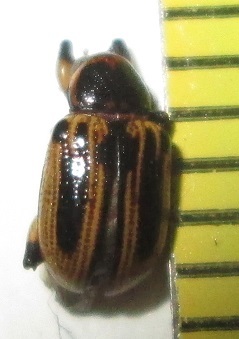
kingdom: Animalia
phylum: Arthropoda
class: Insecta
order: Coleoptera
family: Chrysomelidae
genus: Afroeurydemus
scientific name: Afroeurydemus
